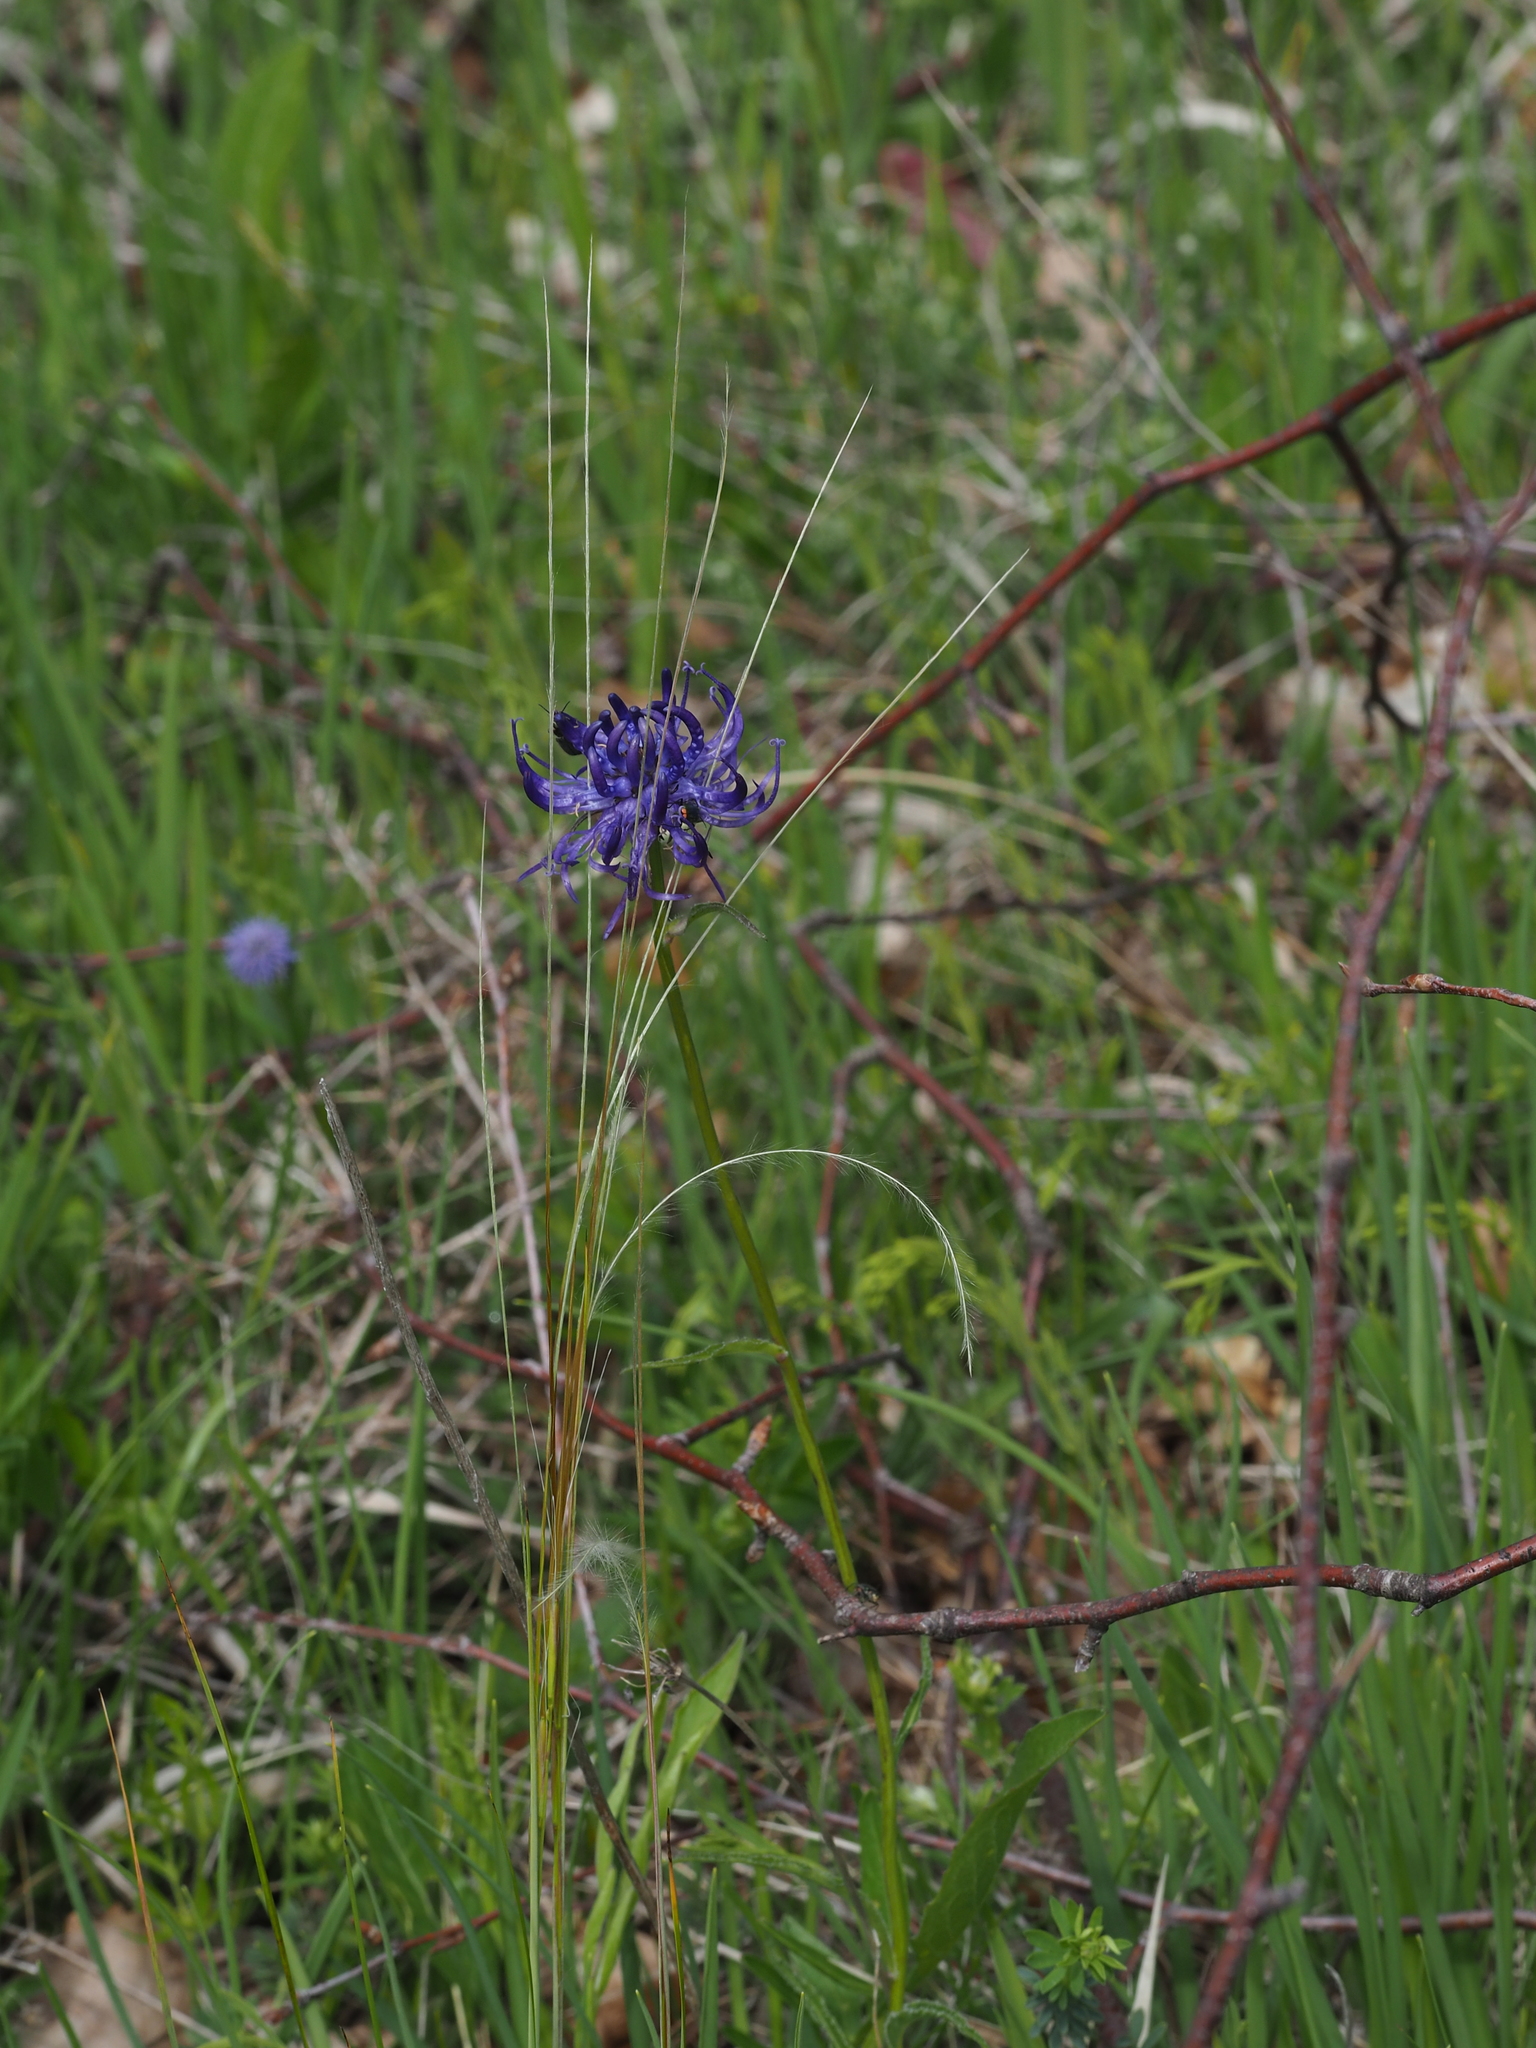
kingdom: Plantae
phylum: Tracheophyta
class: Liliopsida
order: Poales
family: Poaceae
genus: Stipa
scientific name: Stipa pennata
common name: European feather grass
